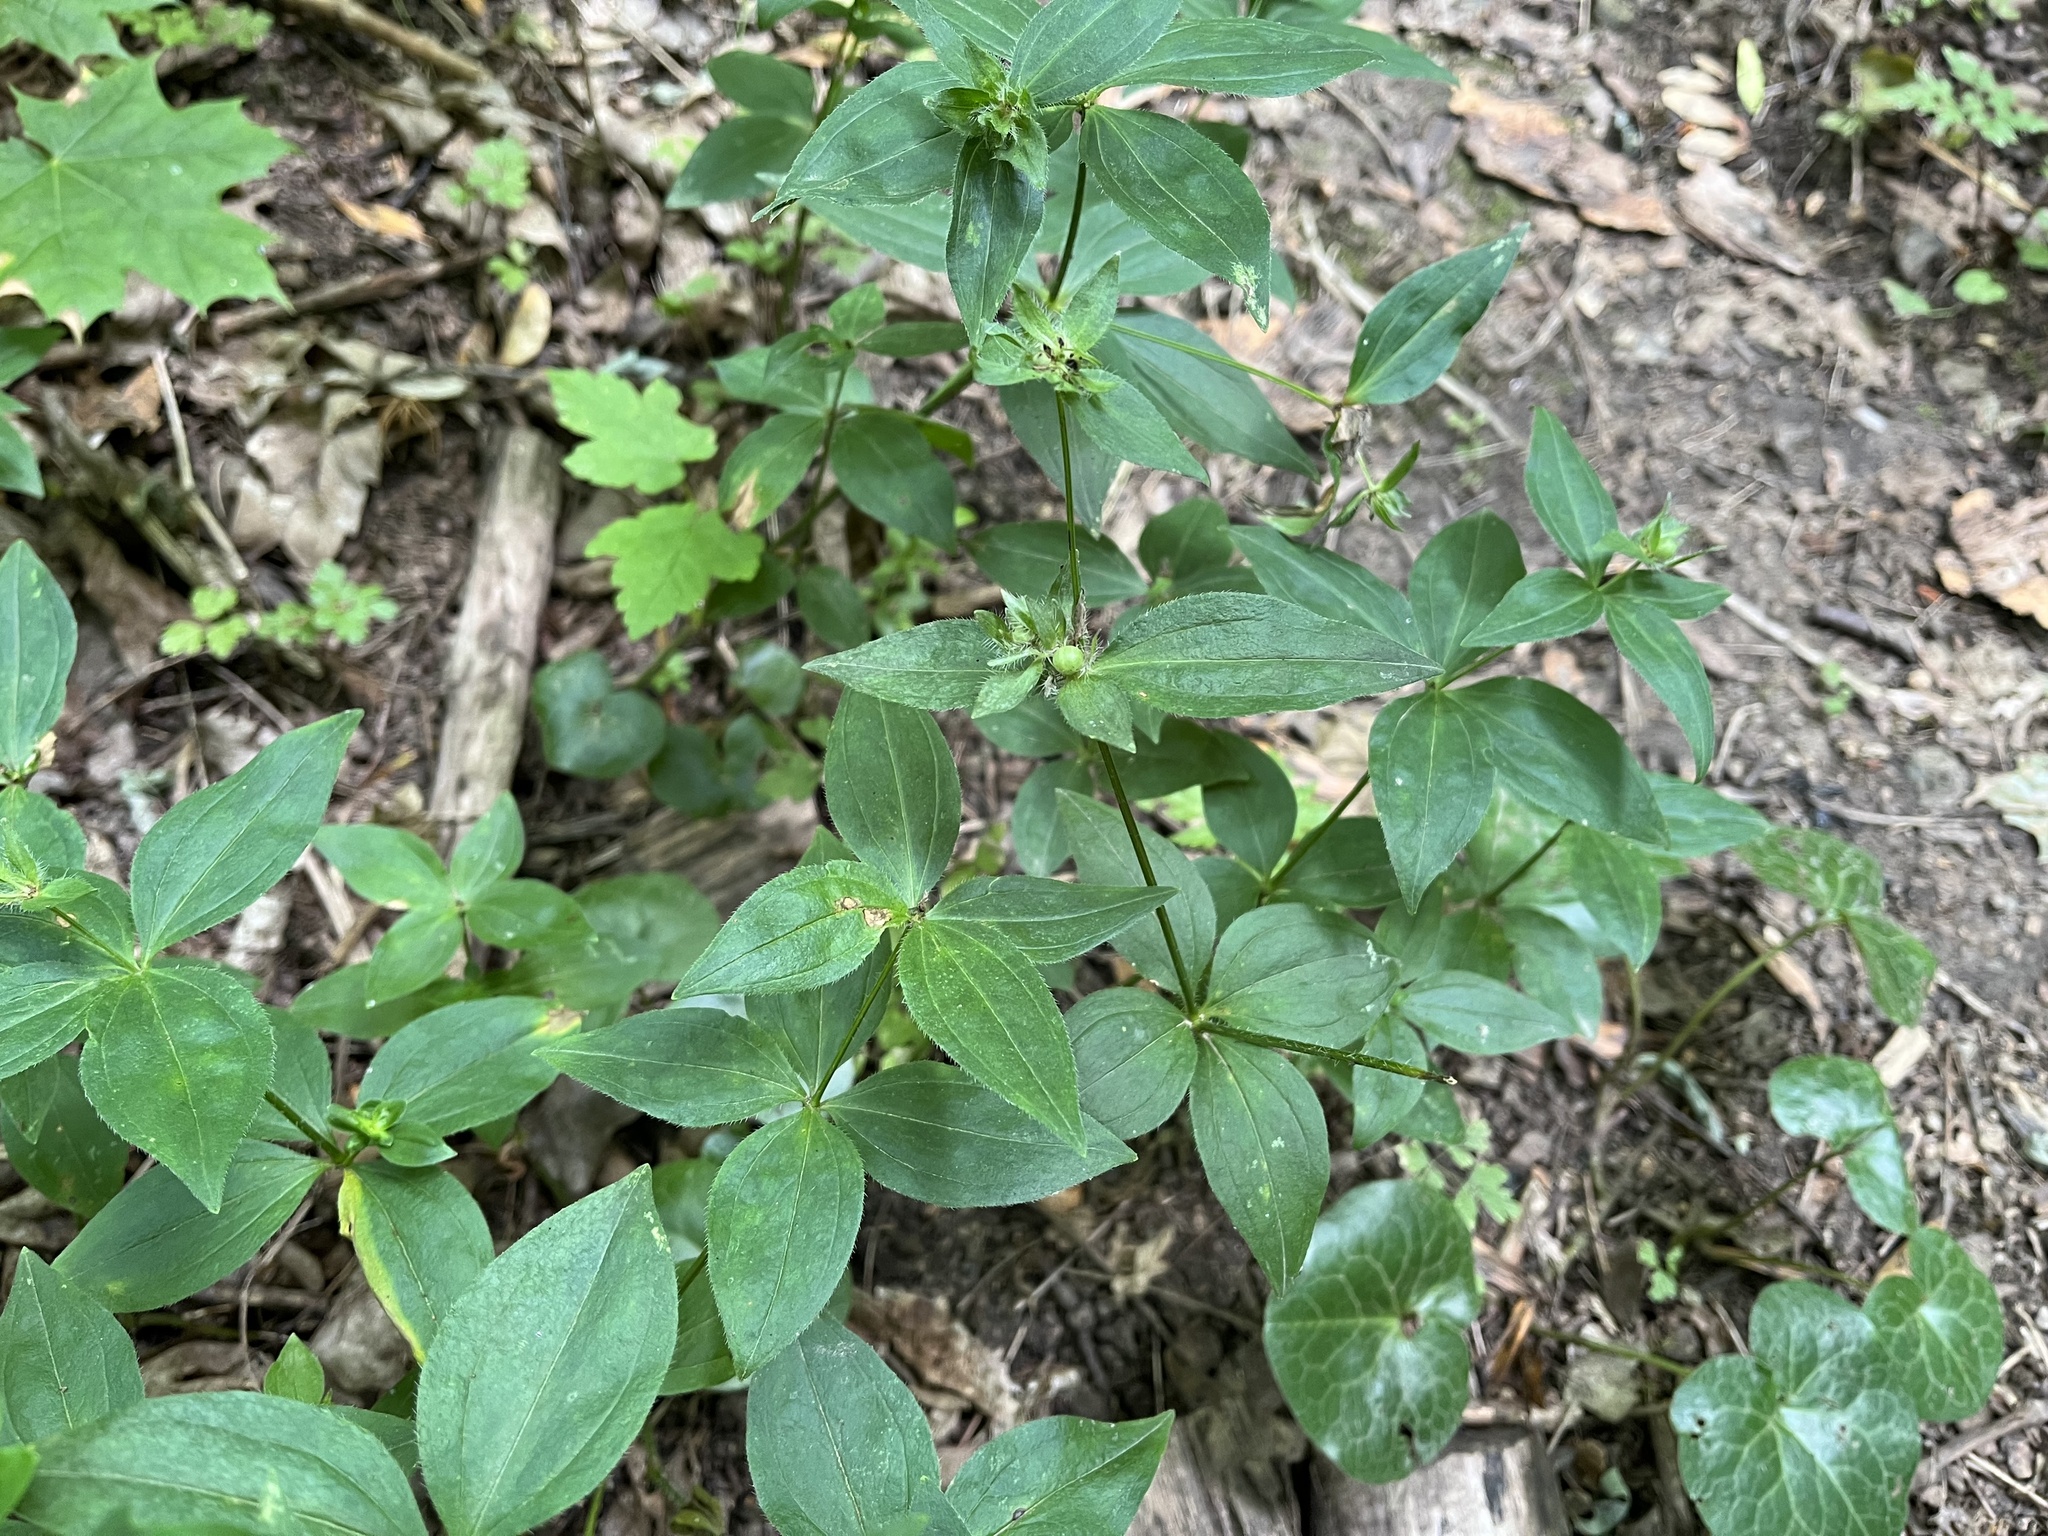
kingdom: Plantae
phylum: Tracheophyta
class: Magnoliopsida
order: Gentianales
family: Rubiaceae
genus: Asperula
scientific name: Asperula taurina
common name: Pink woodruff
